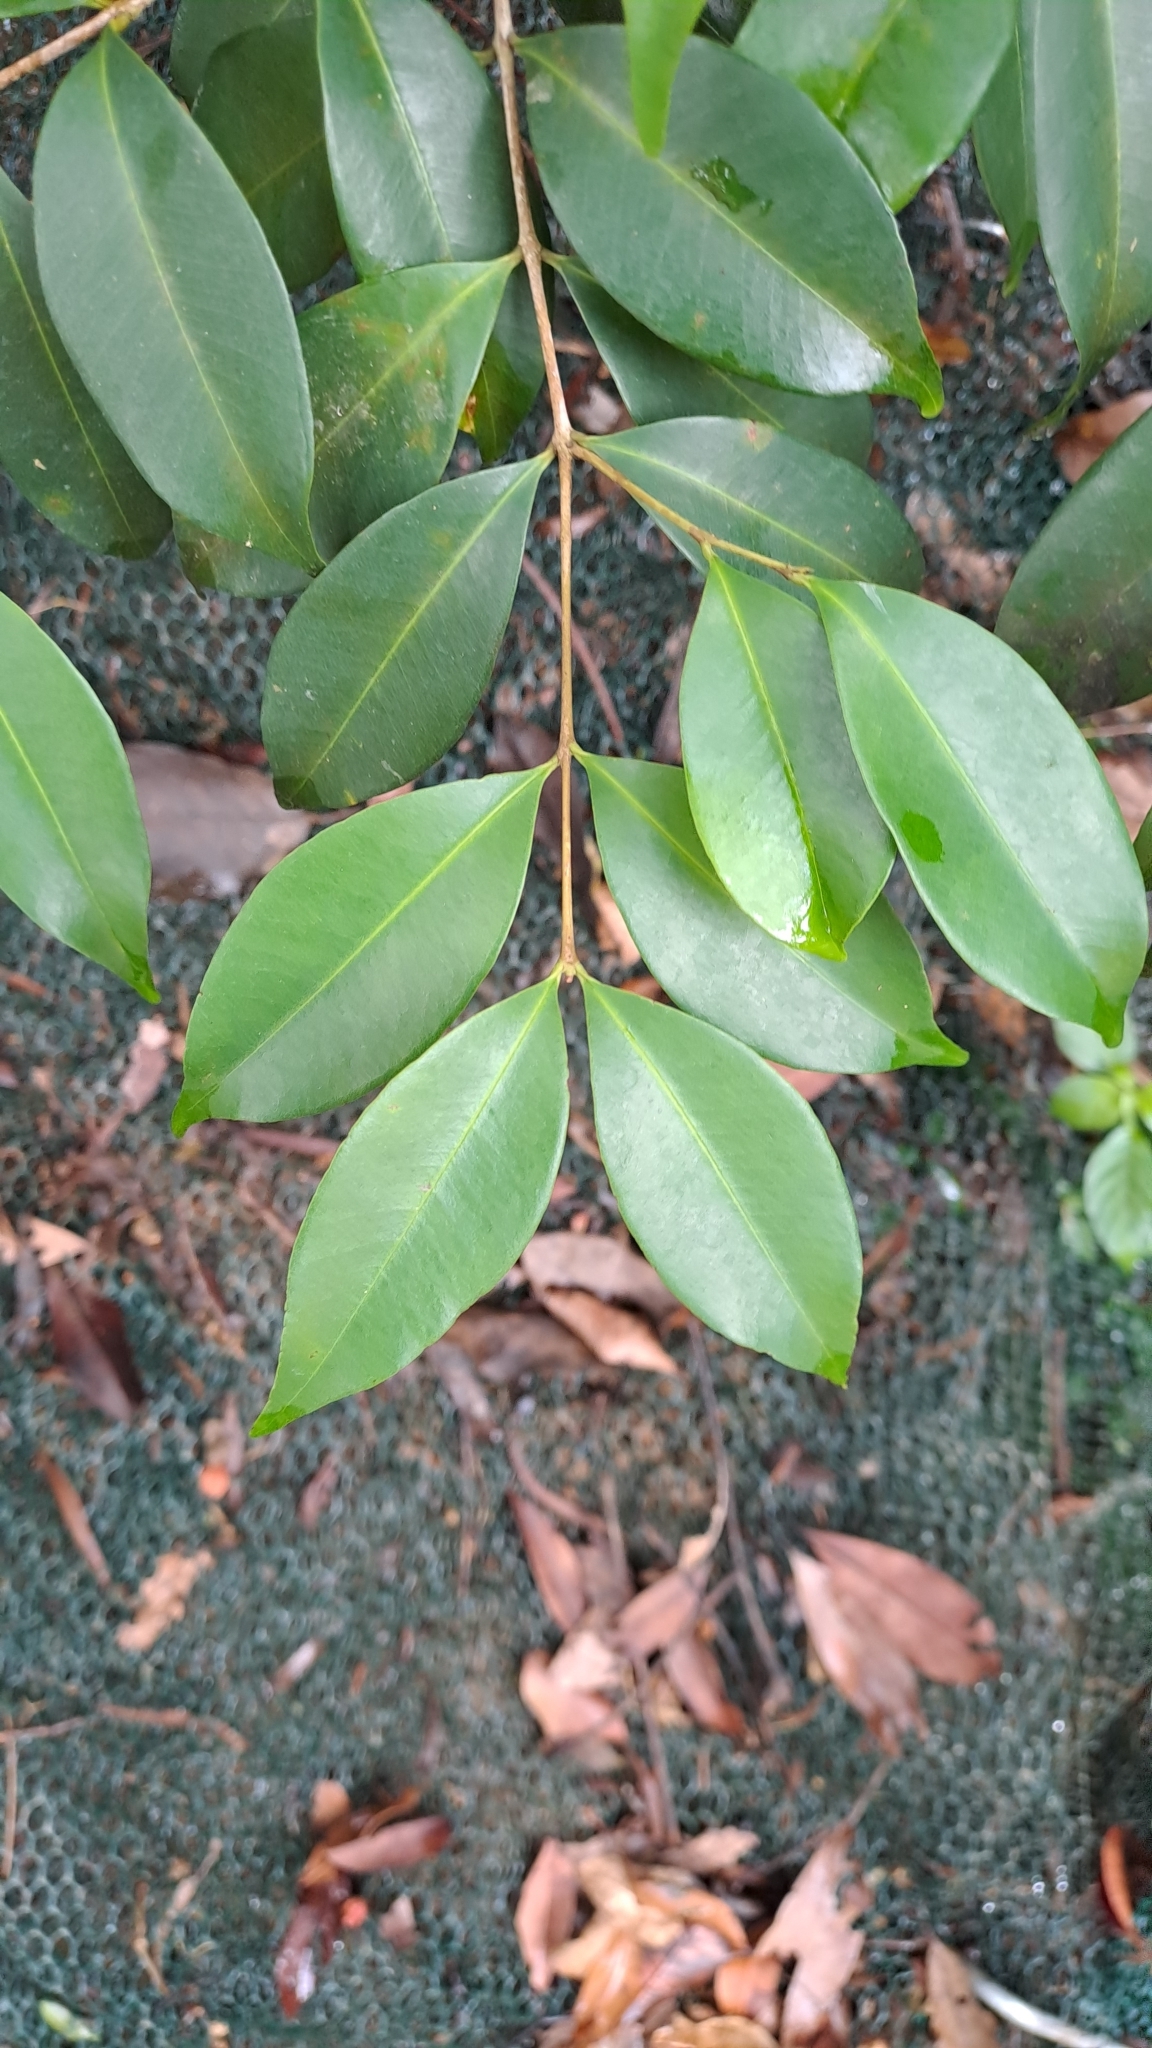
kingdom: Plantae
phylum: Tracheophyta
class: Magnoliopsida
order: Myrtales
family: Myrtaceae
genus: Syzygium
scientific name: Syzygium levinei
